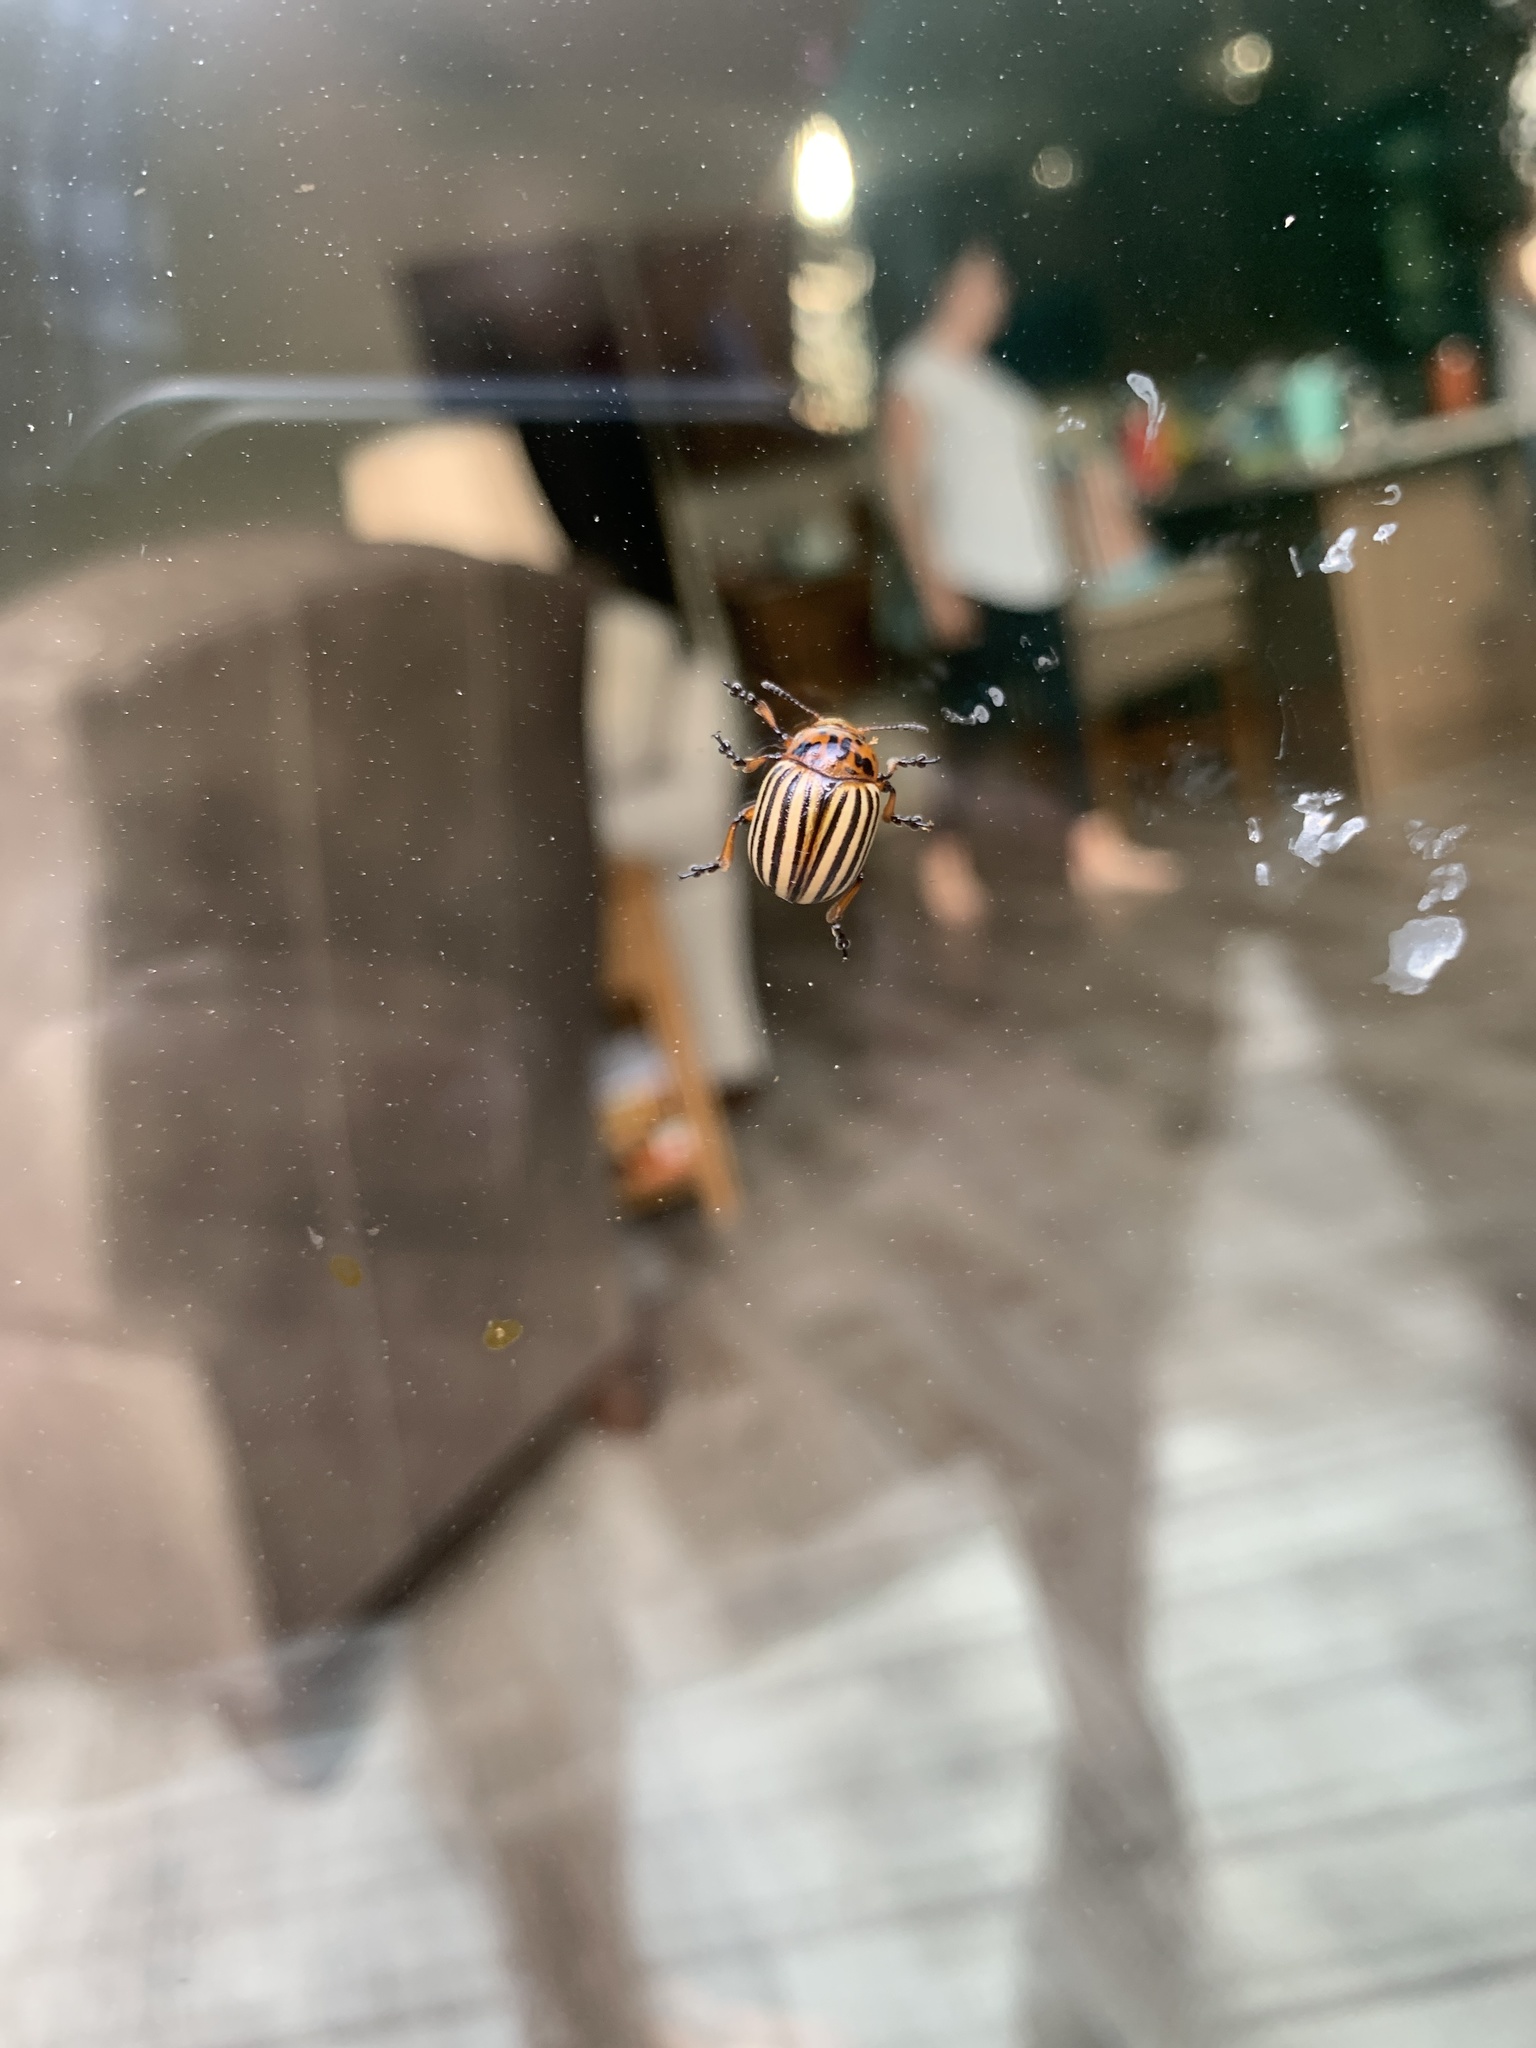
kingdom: Animalia
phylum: Arthropoda
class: Insecta
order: Coleoptera
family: Chrysomelidae
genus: Leptinotarsa
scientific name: Leptinotarsa decemlineata
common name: Colorado potato beetle
